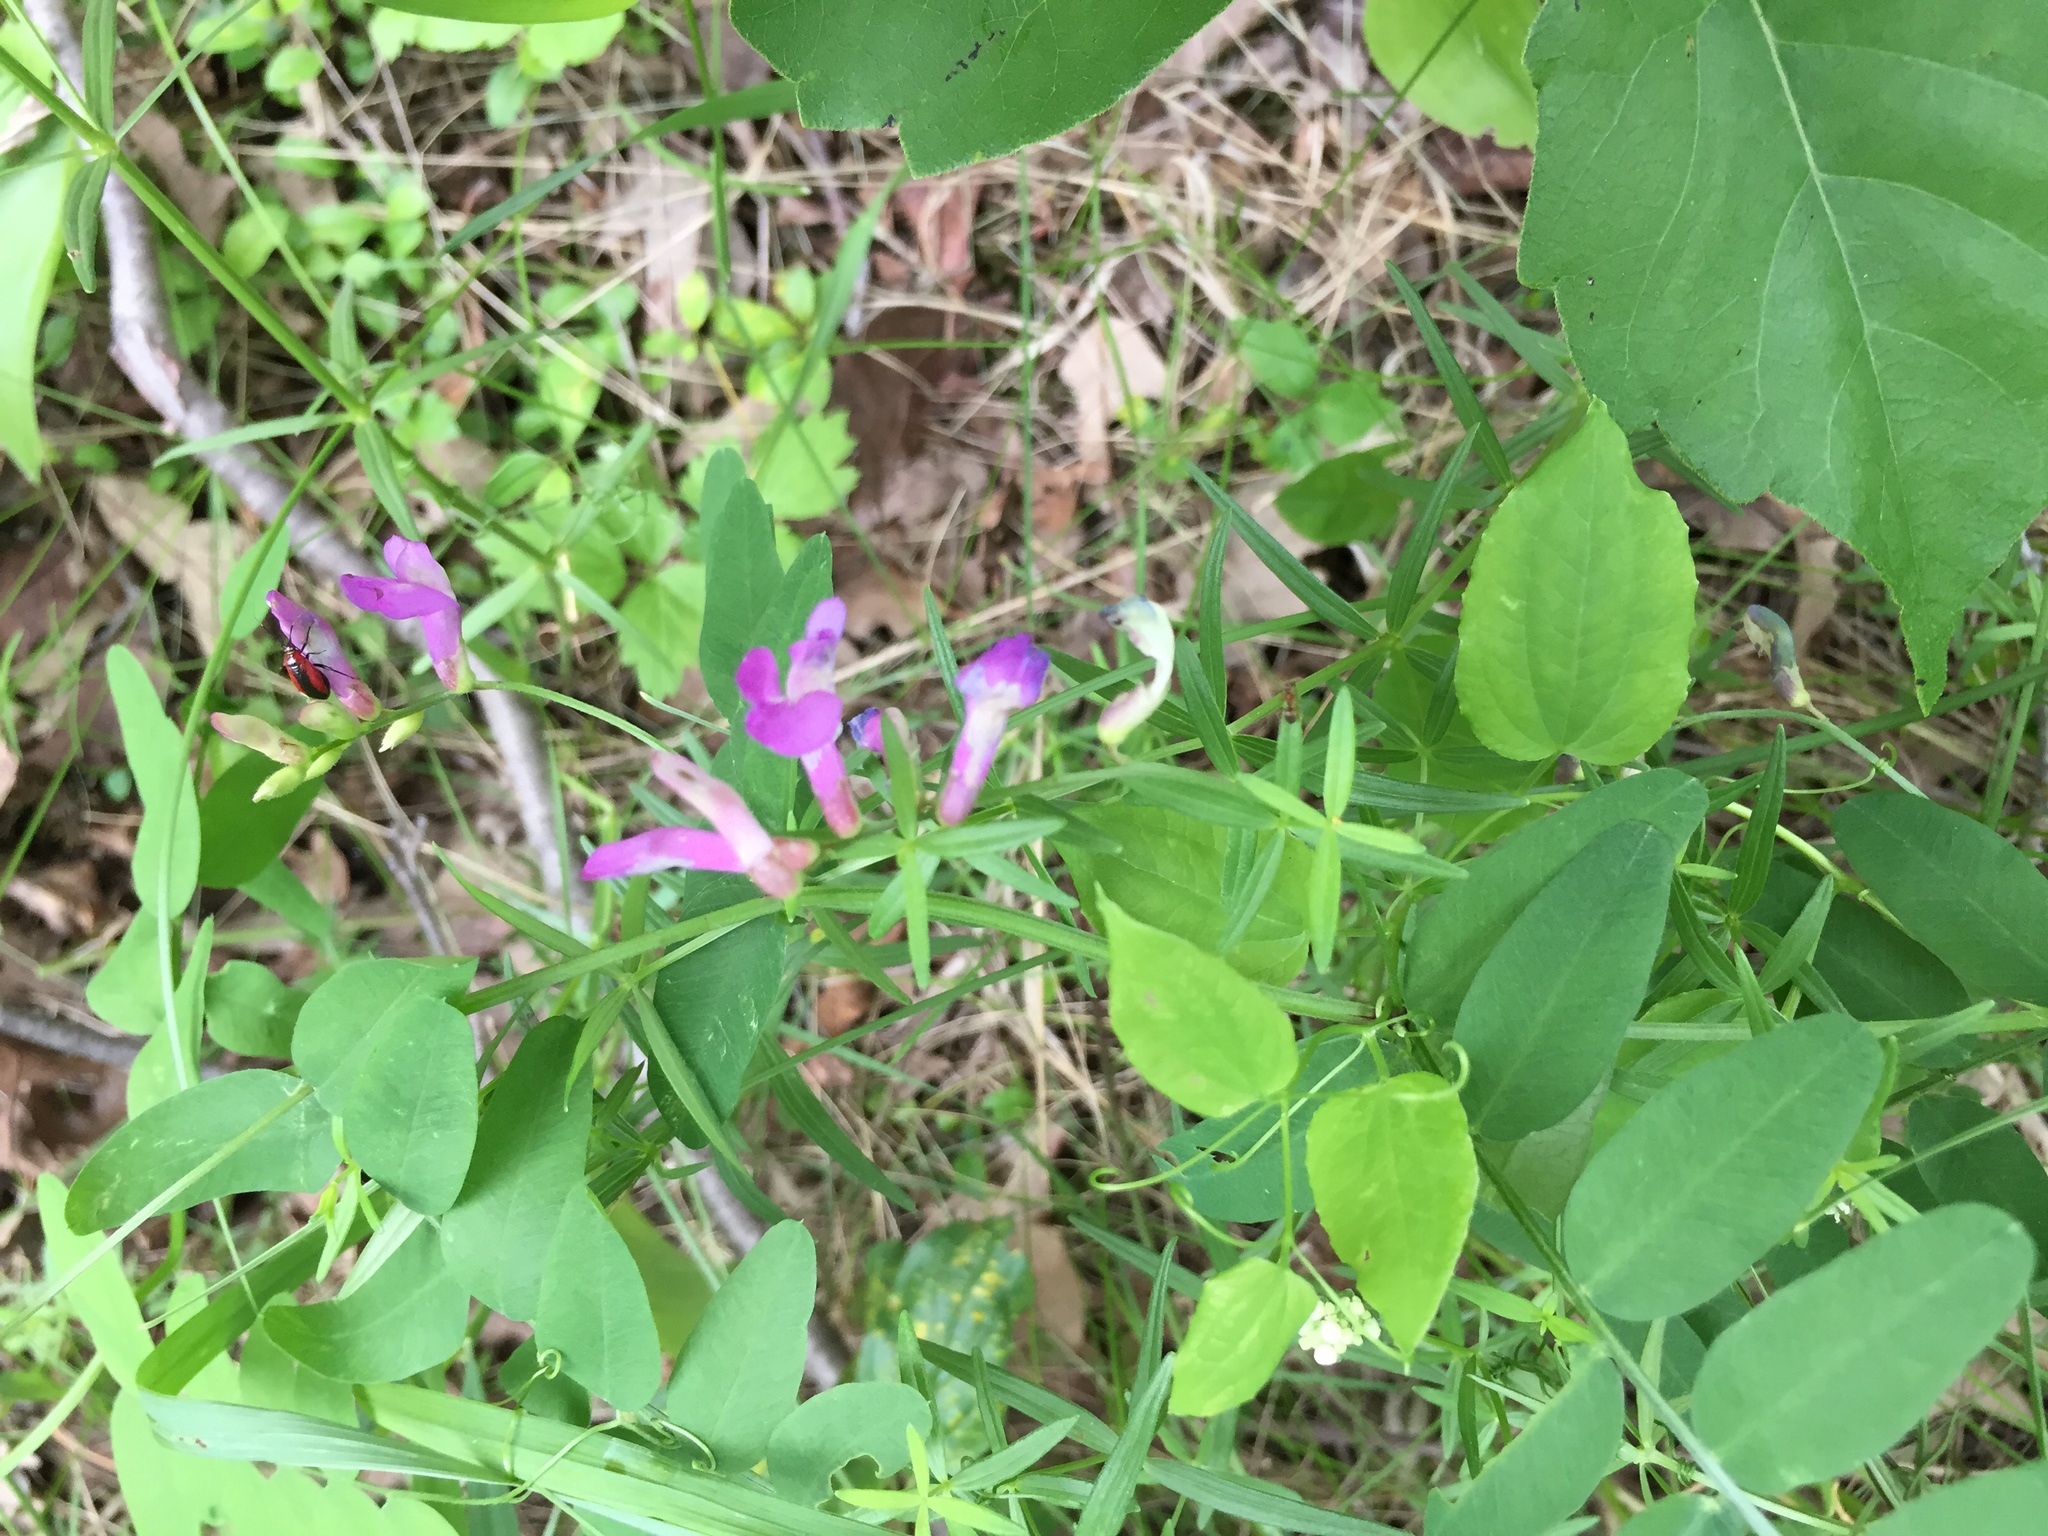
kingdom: Plantae
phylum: Tracheophyta
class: Magnoliopsida
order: Fabales
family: Fabaceae
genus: Vicia
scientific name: Vicia americana
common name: American vetch
